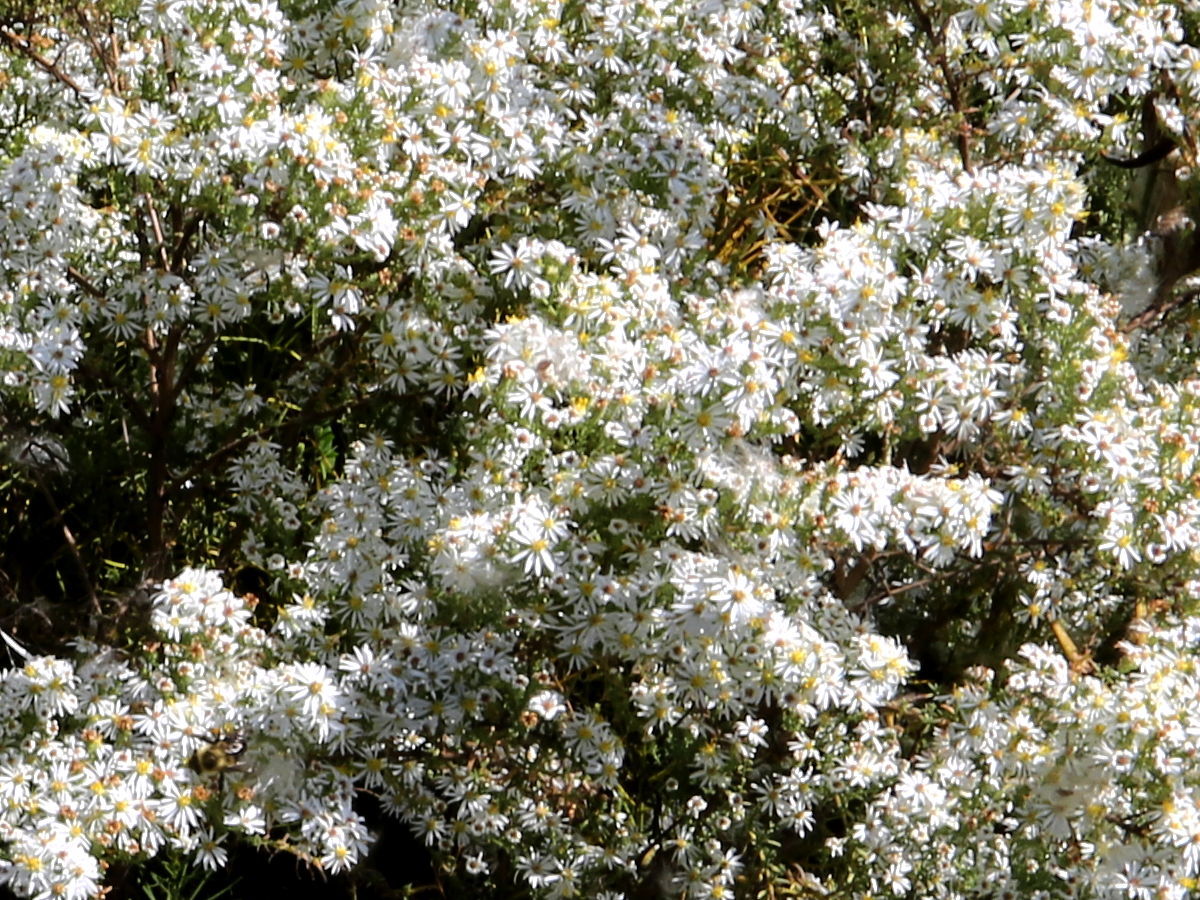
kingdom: Plantae
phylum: Tracheophyta
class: Magnoliopsida
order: Asterales
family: Asteraceae
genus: Symphyotrichum
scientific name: Symphyotrichum ericoides
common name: Heath aster
